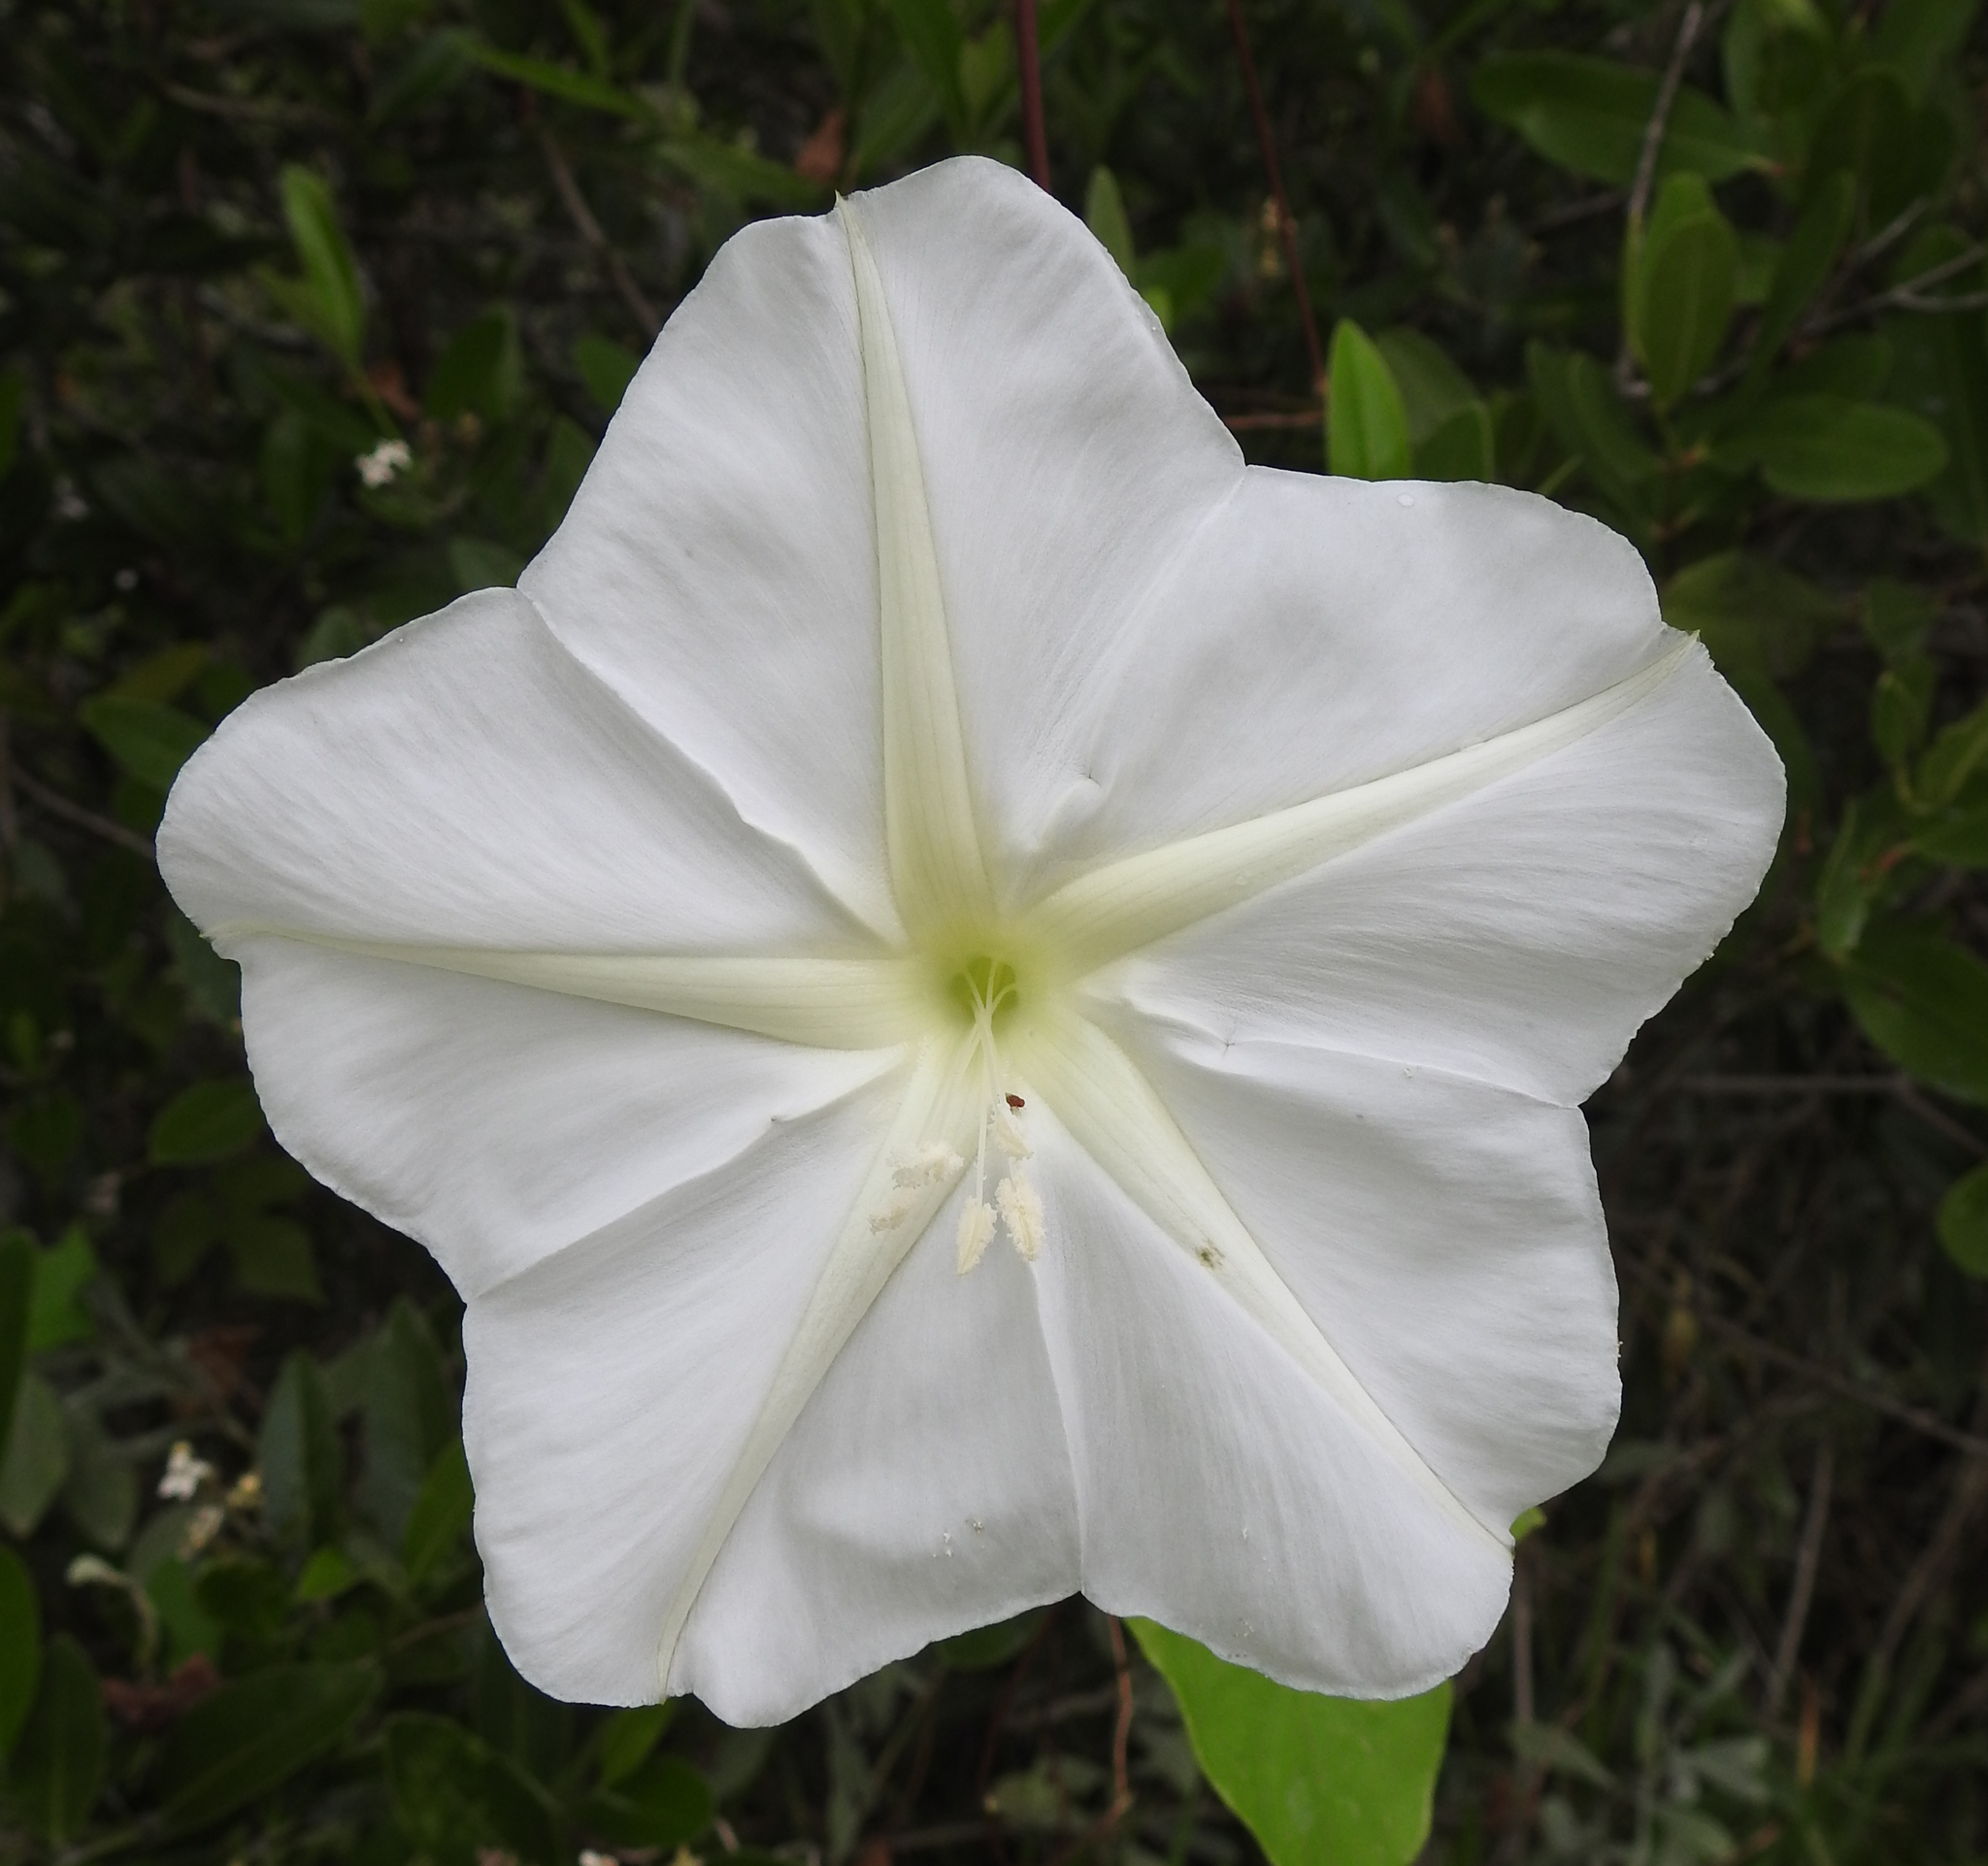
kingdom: Plantae
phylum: Tracheophyta
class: Magnoliopsida
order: Solanales
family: Convolvulaceae
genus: Ipomoea
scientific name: Ipomoea alba
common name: Moonflower
